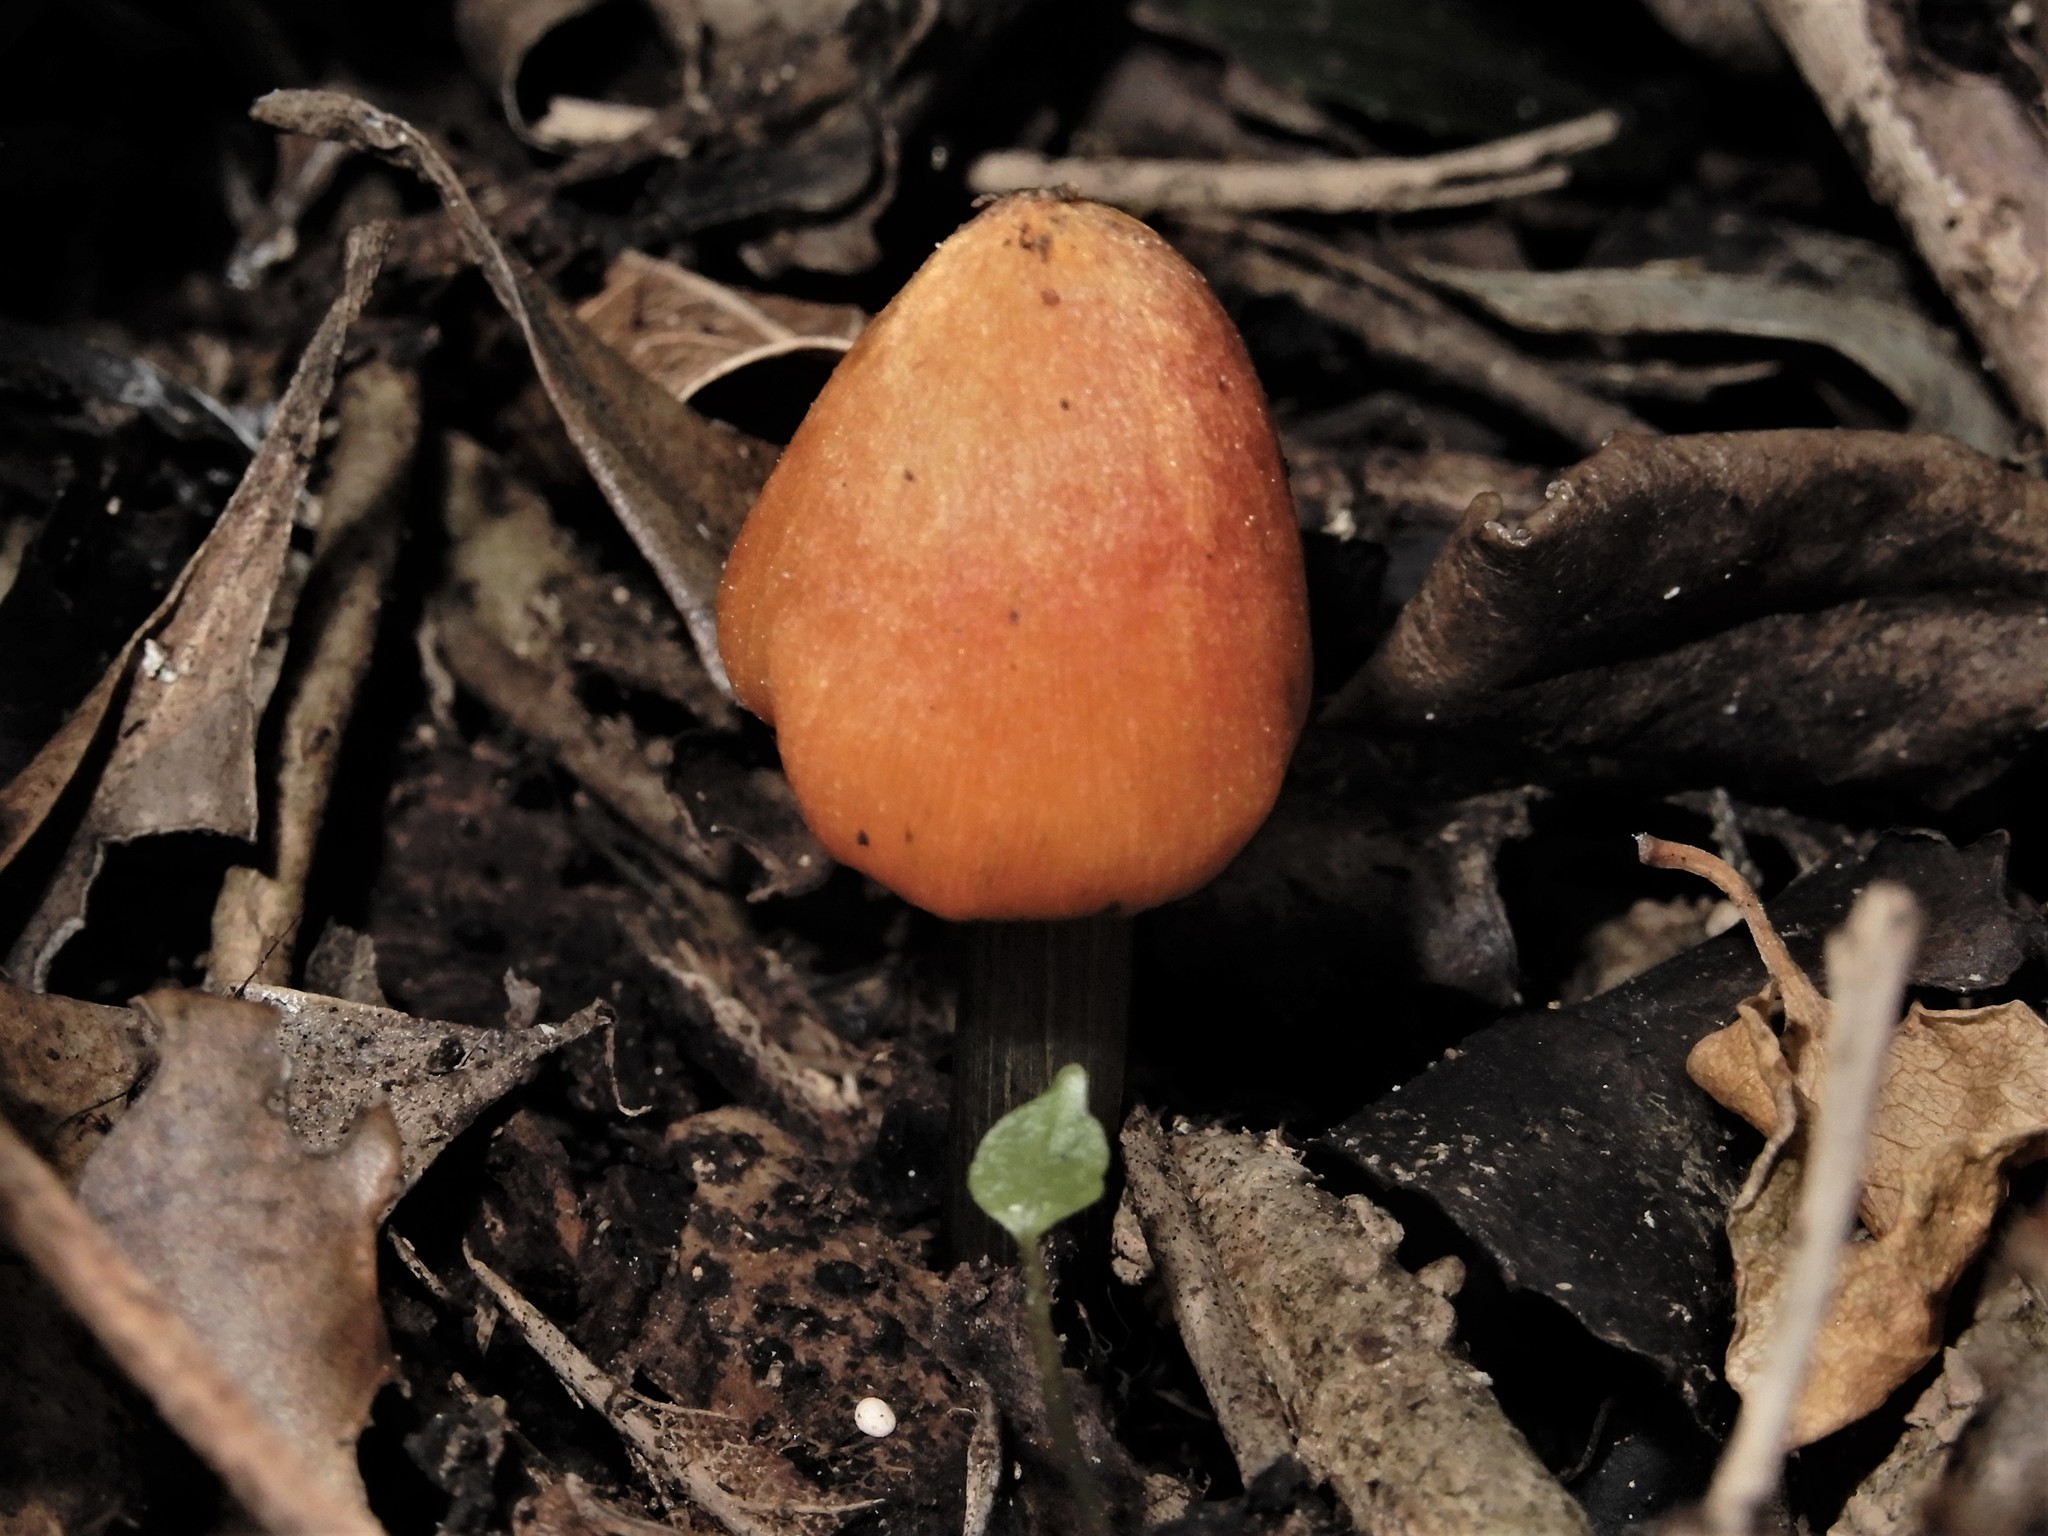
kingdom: Fungi
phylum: Basidiomycota
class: Agaricomycetes
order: Agaricales
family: Hygrophoraceae
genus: Hygrocybe
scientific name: Hygrocybe astatogala
